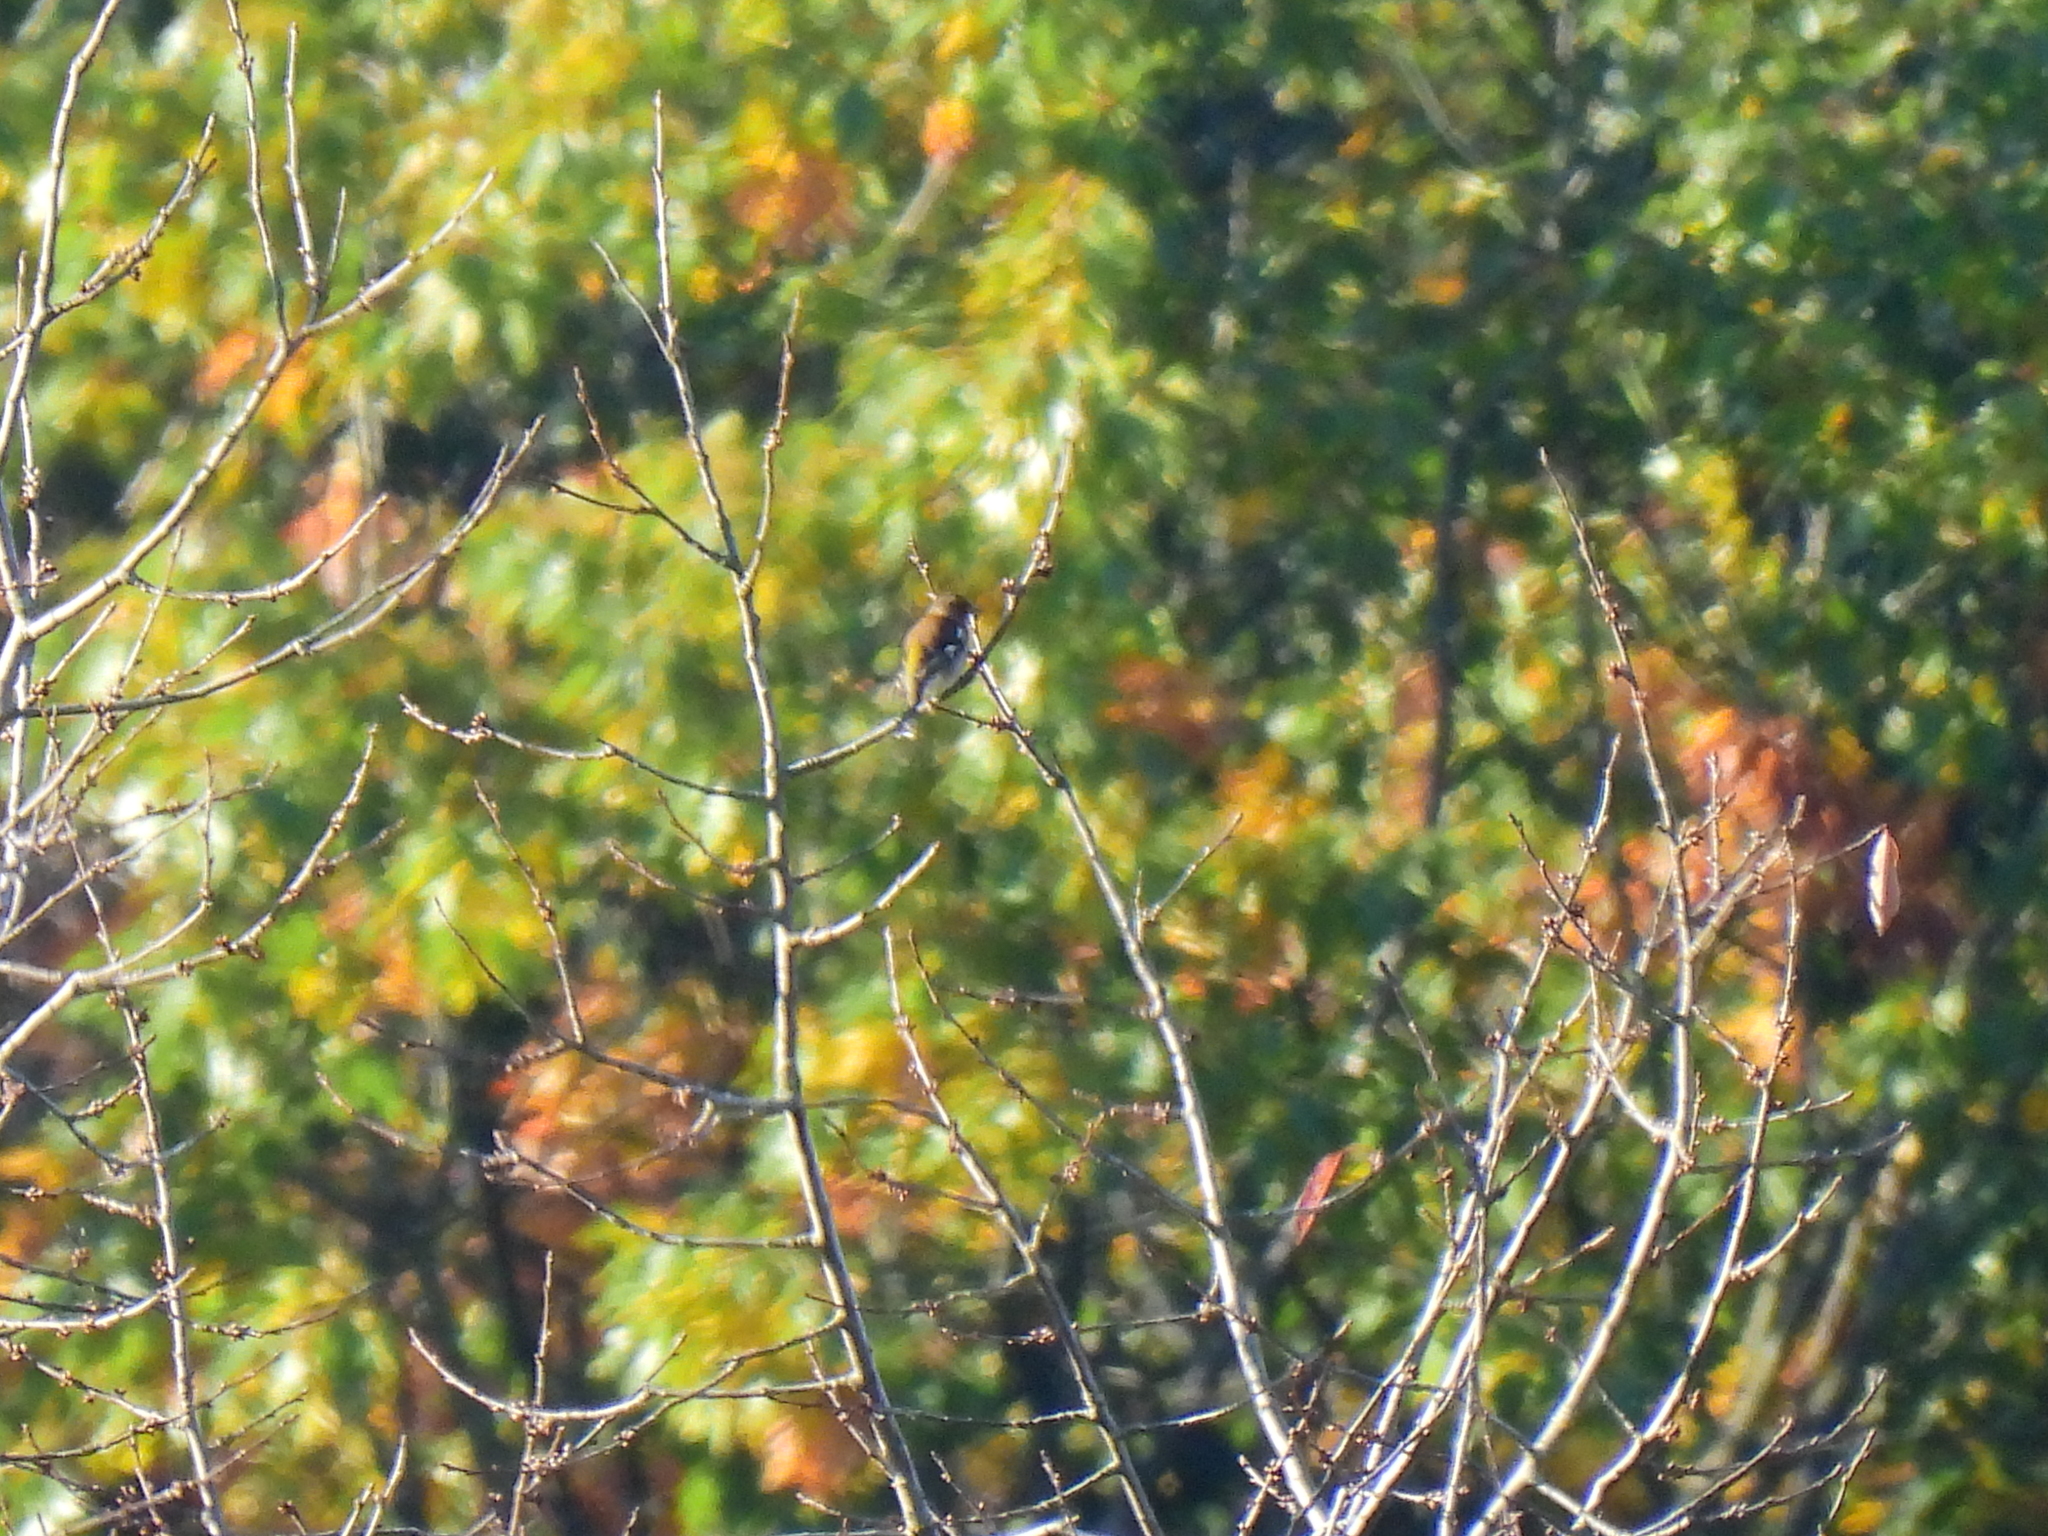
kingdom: Animalia
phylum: Chordata
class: Aves
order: Passeriformes
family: Fringillidae
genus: Fringilla
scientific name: Fringilla coelebs
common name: Common chaffinch
